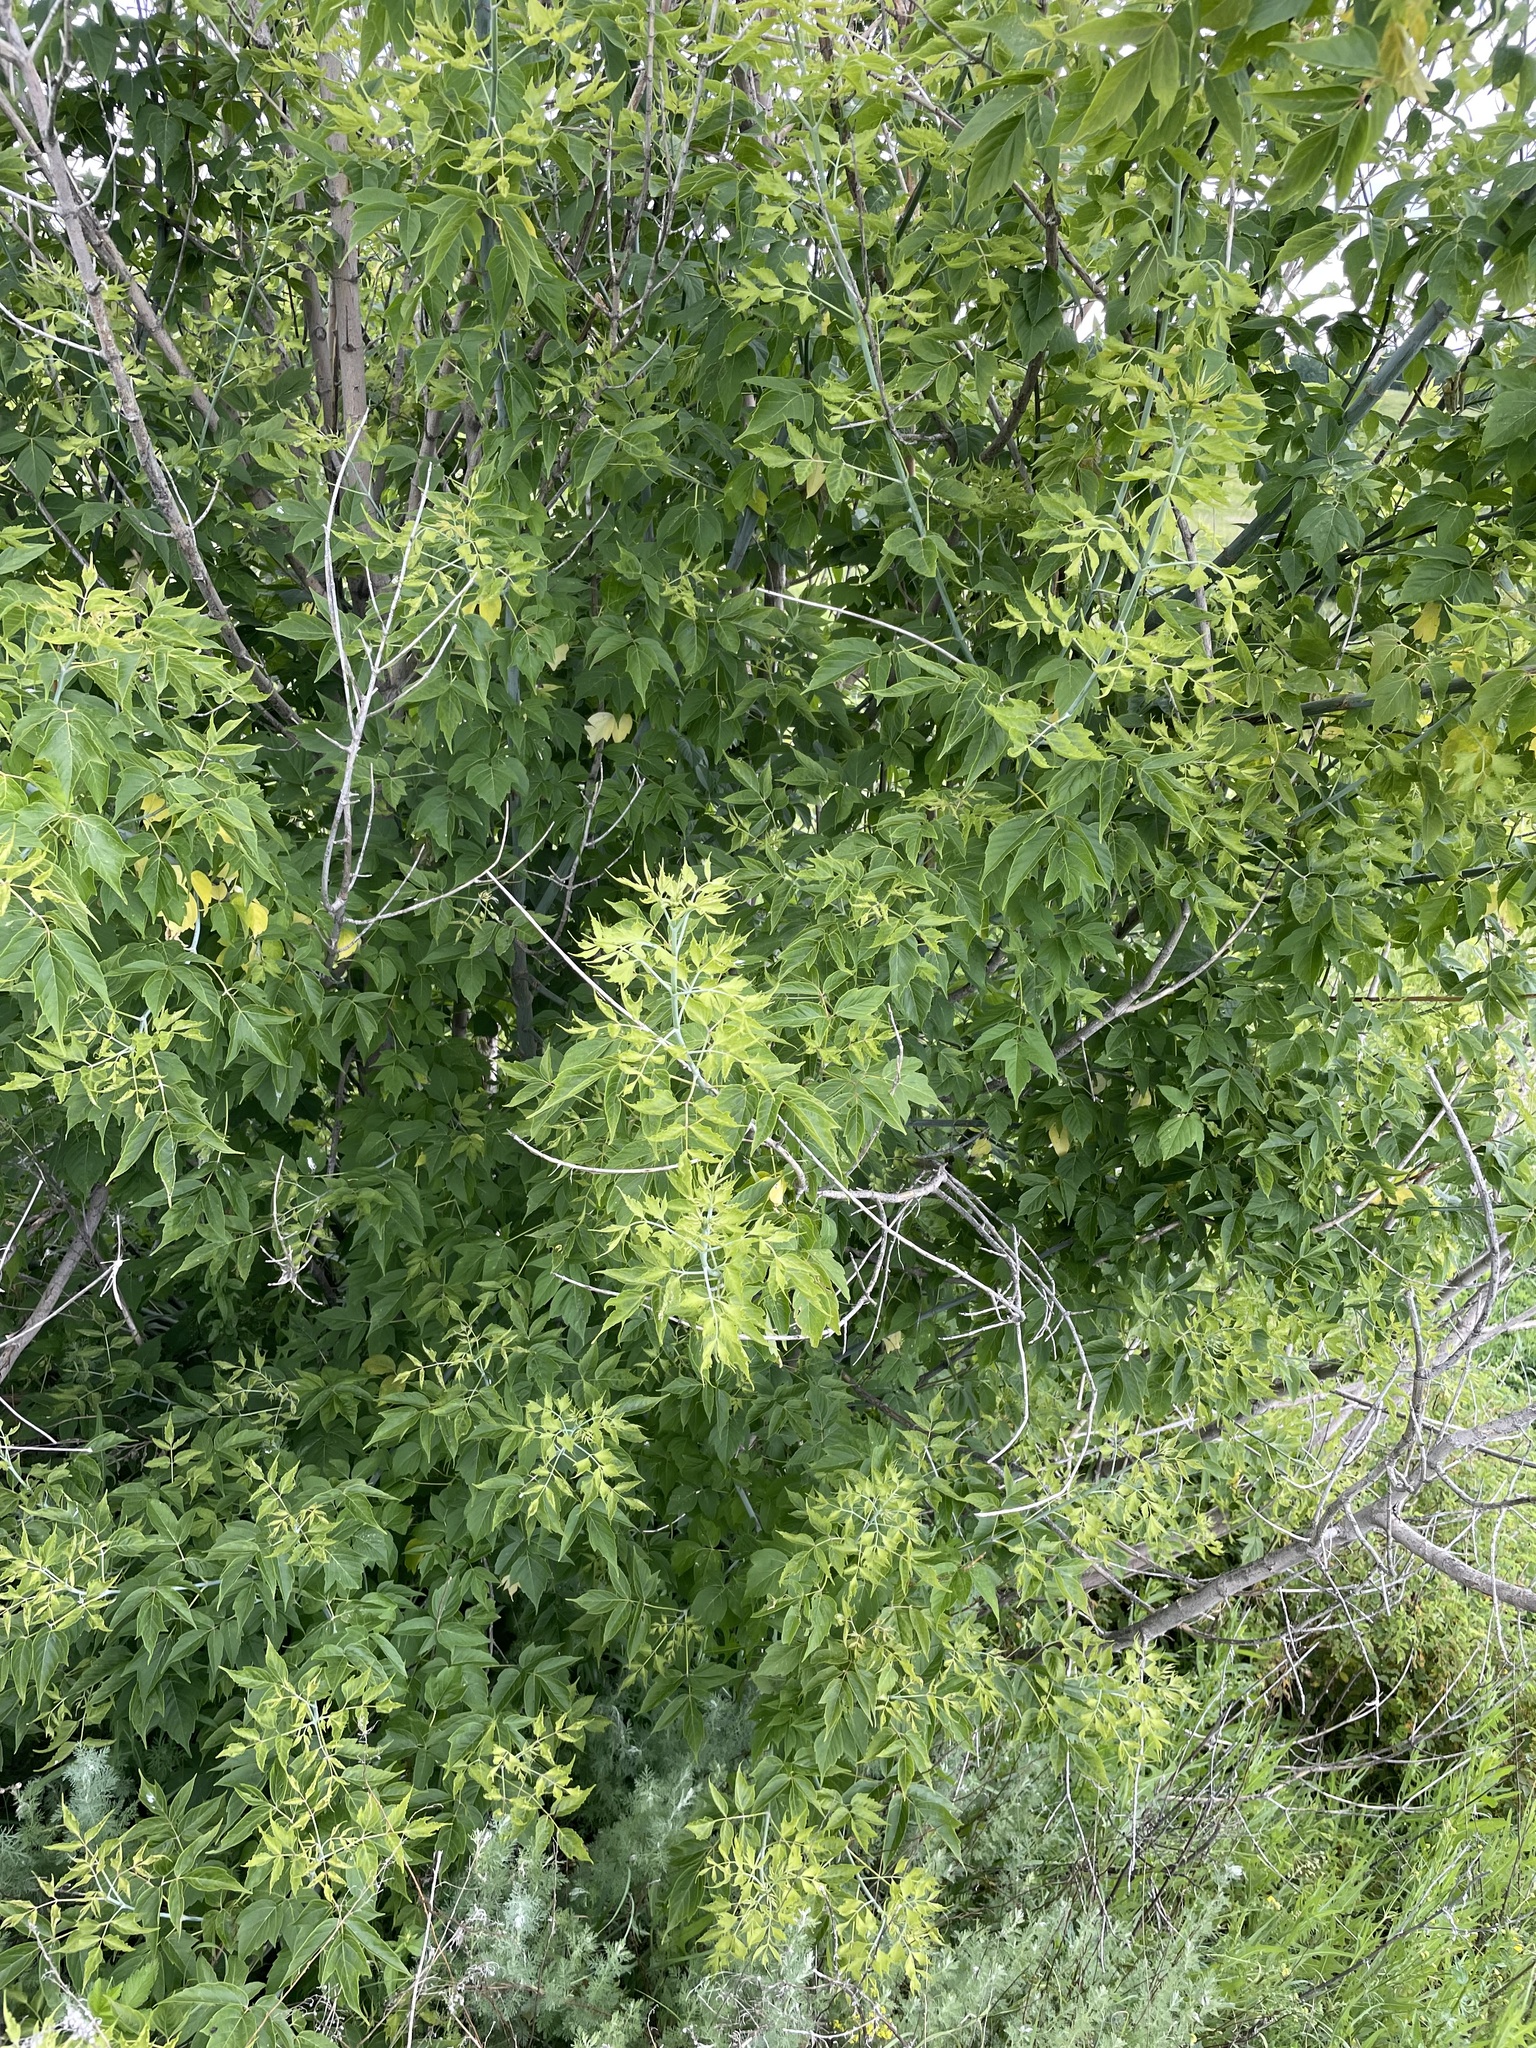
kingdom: Plantae
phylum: Tracheophyta
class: Magnoliopsida
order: Sapindales
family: Sapindaceae
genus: Acer
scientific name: Acer negundo
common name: Ashleaf maple
